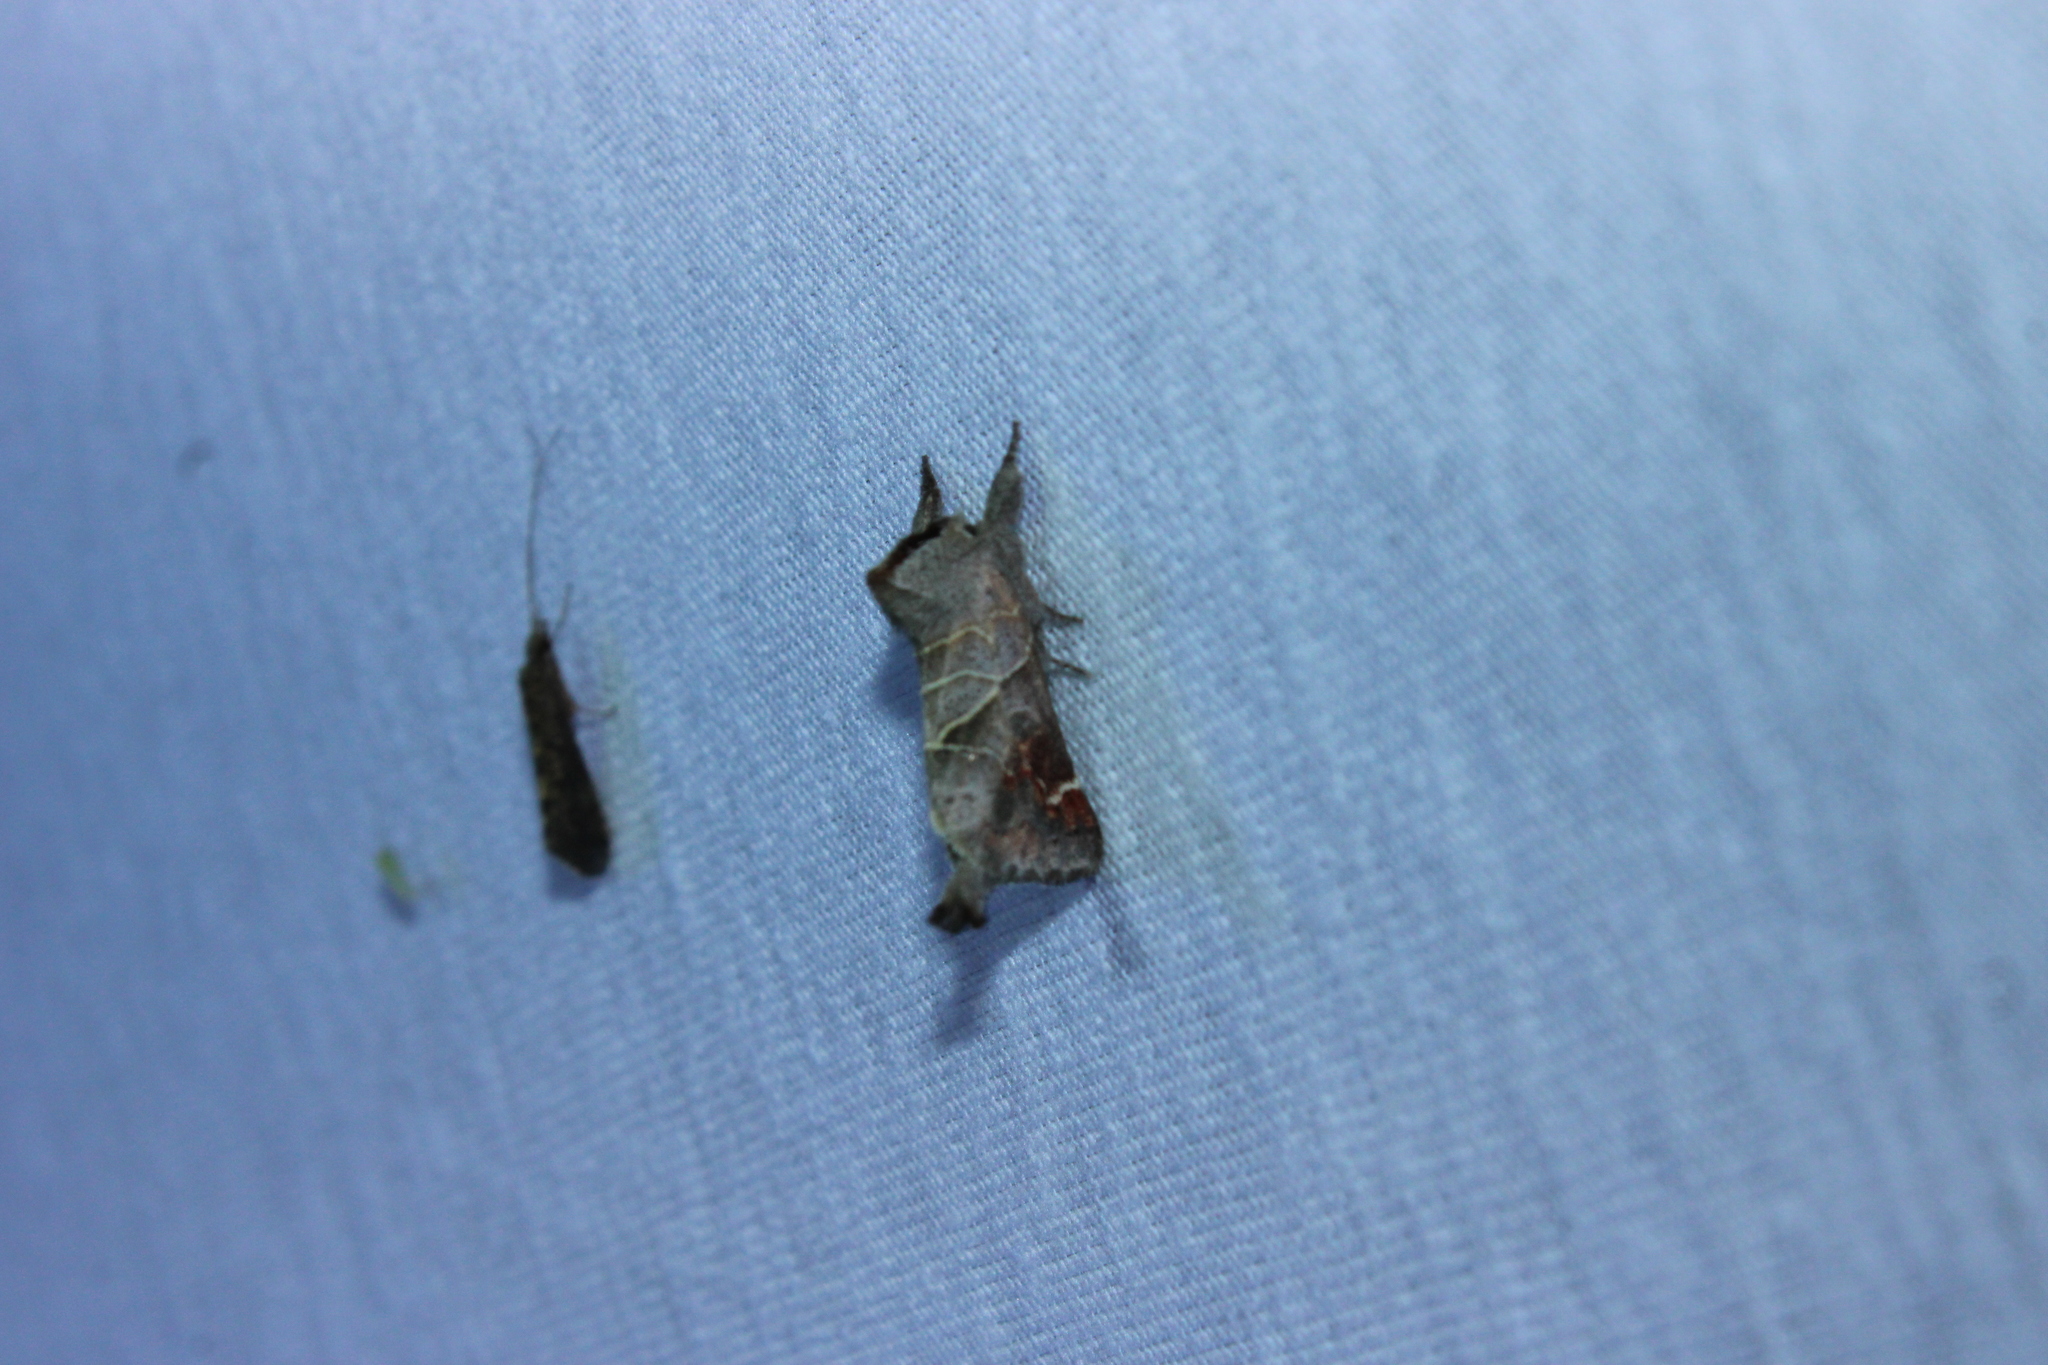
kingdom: Animalia
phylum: Arthropoda
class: Insecta
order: Lepidoptera
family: Notodontidae
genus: Clostera
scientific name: Clostera apicalis
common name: Apical prominent
